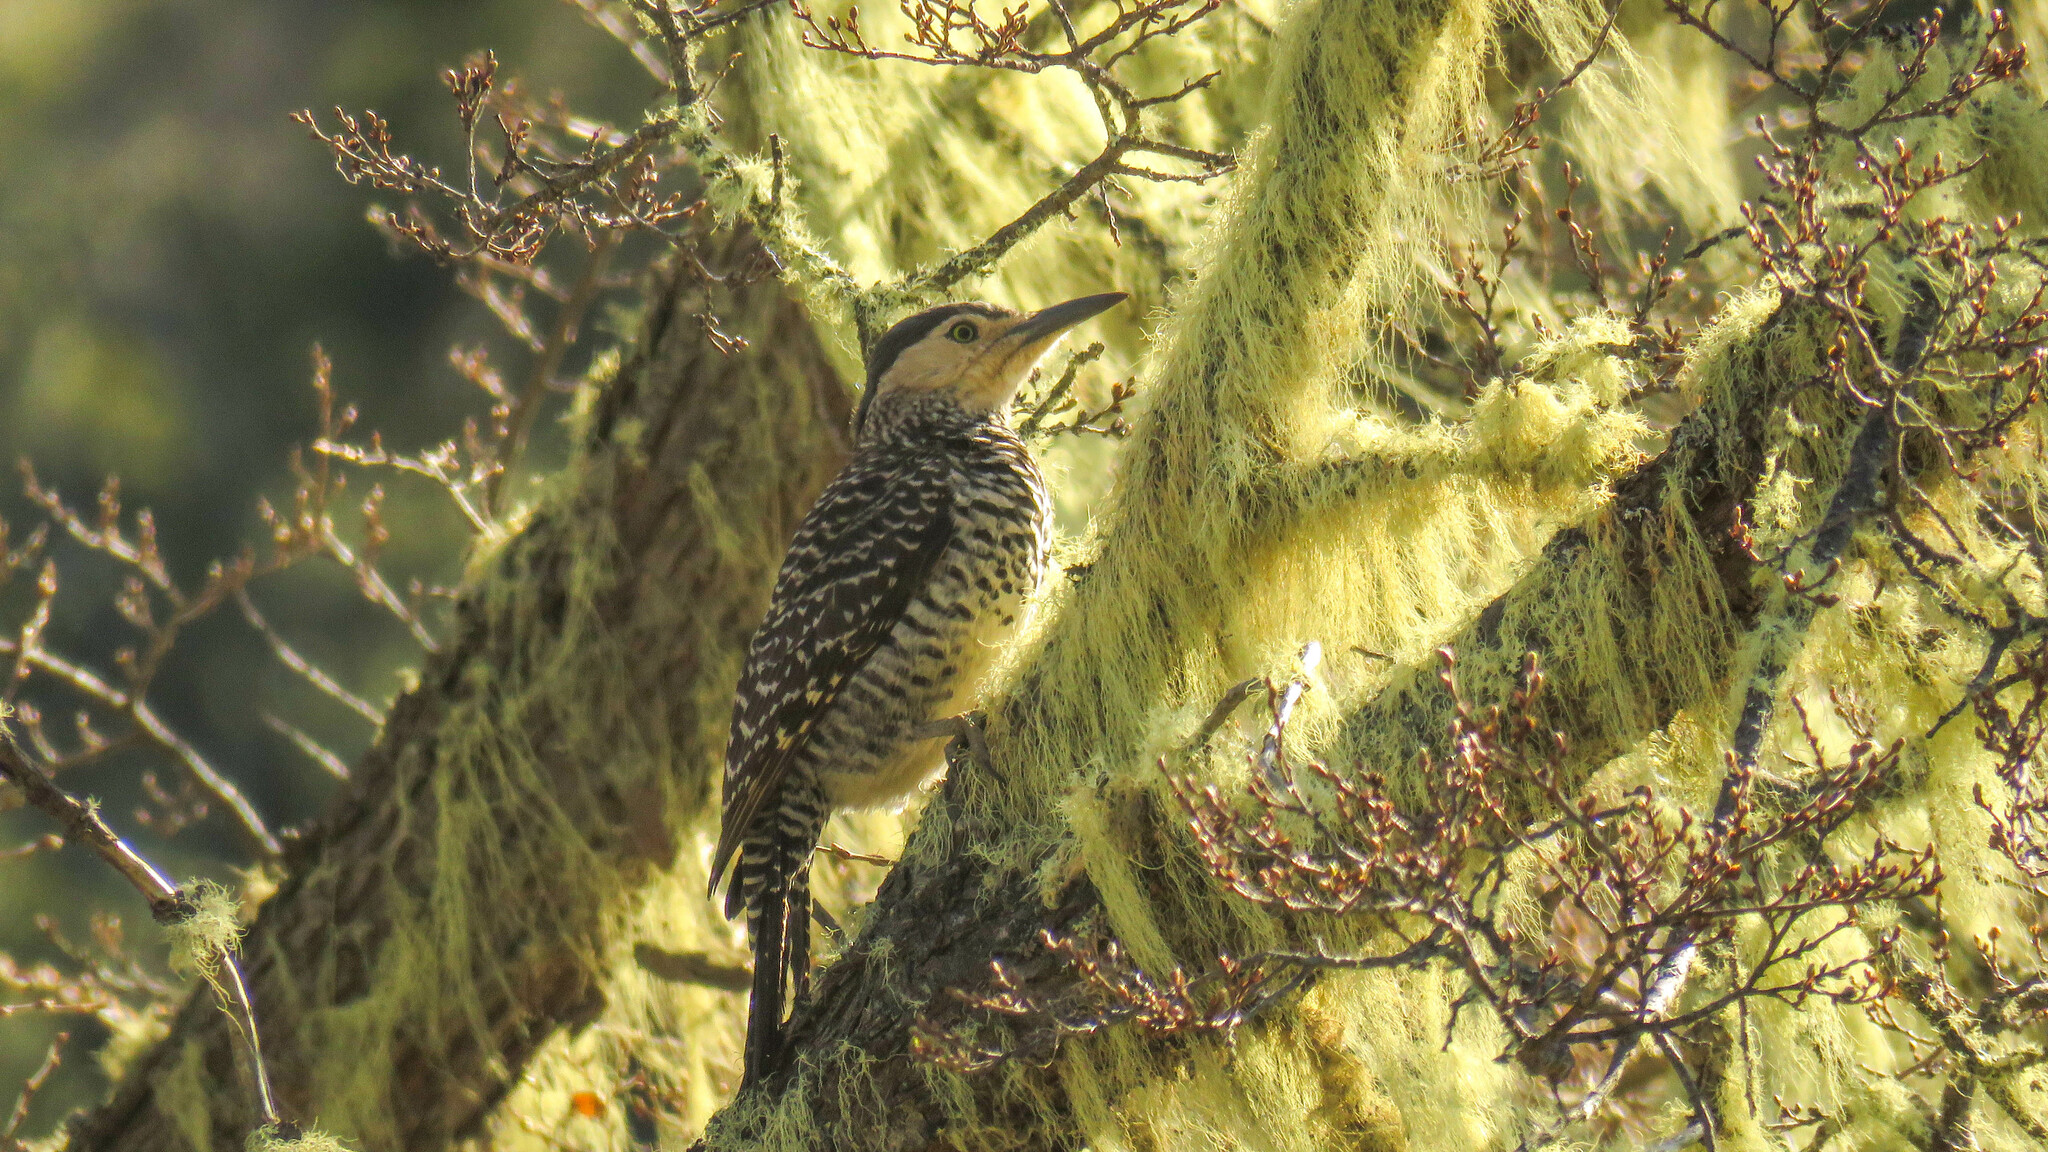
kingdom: Animalia
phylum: Chordata
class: Aves
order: Piciformes
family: Picidae
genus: Colaptes
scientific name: Colaptes pitius
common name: Chilean flicker
